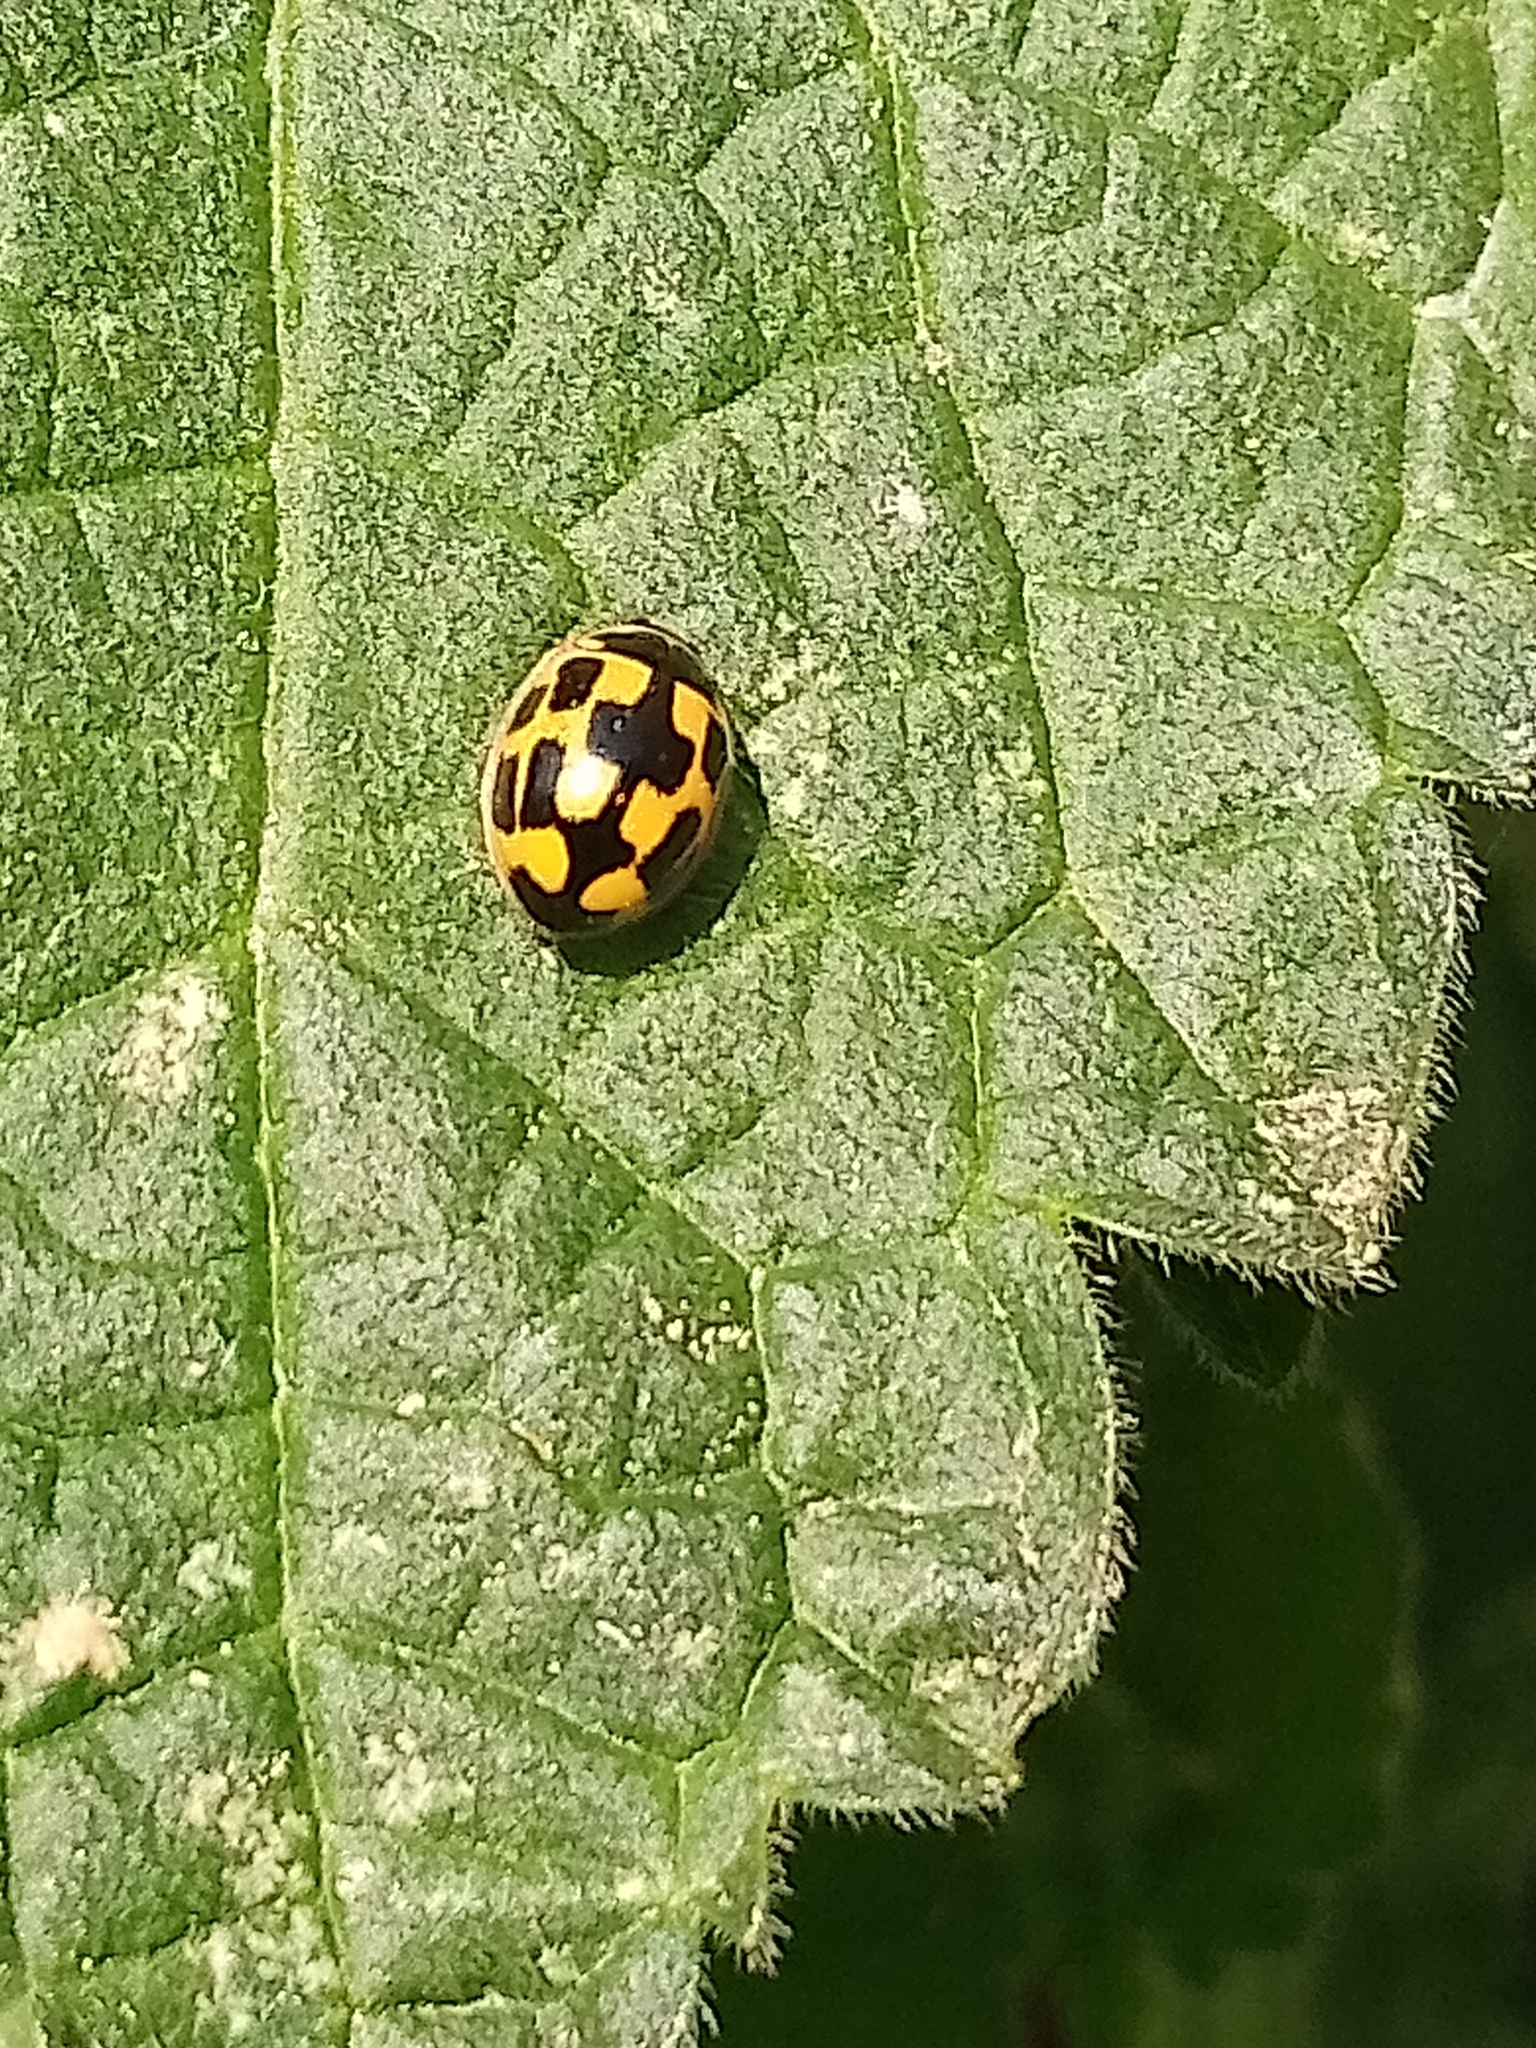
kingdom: Animalia
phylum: Arthropoda
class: Insecta
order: Coleoptera
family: Coccinellidae
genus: Propylaea
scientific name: Propylaea quatuordecimpunctata
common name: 14-spotted ladybird beetle
